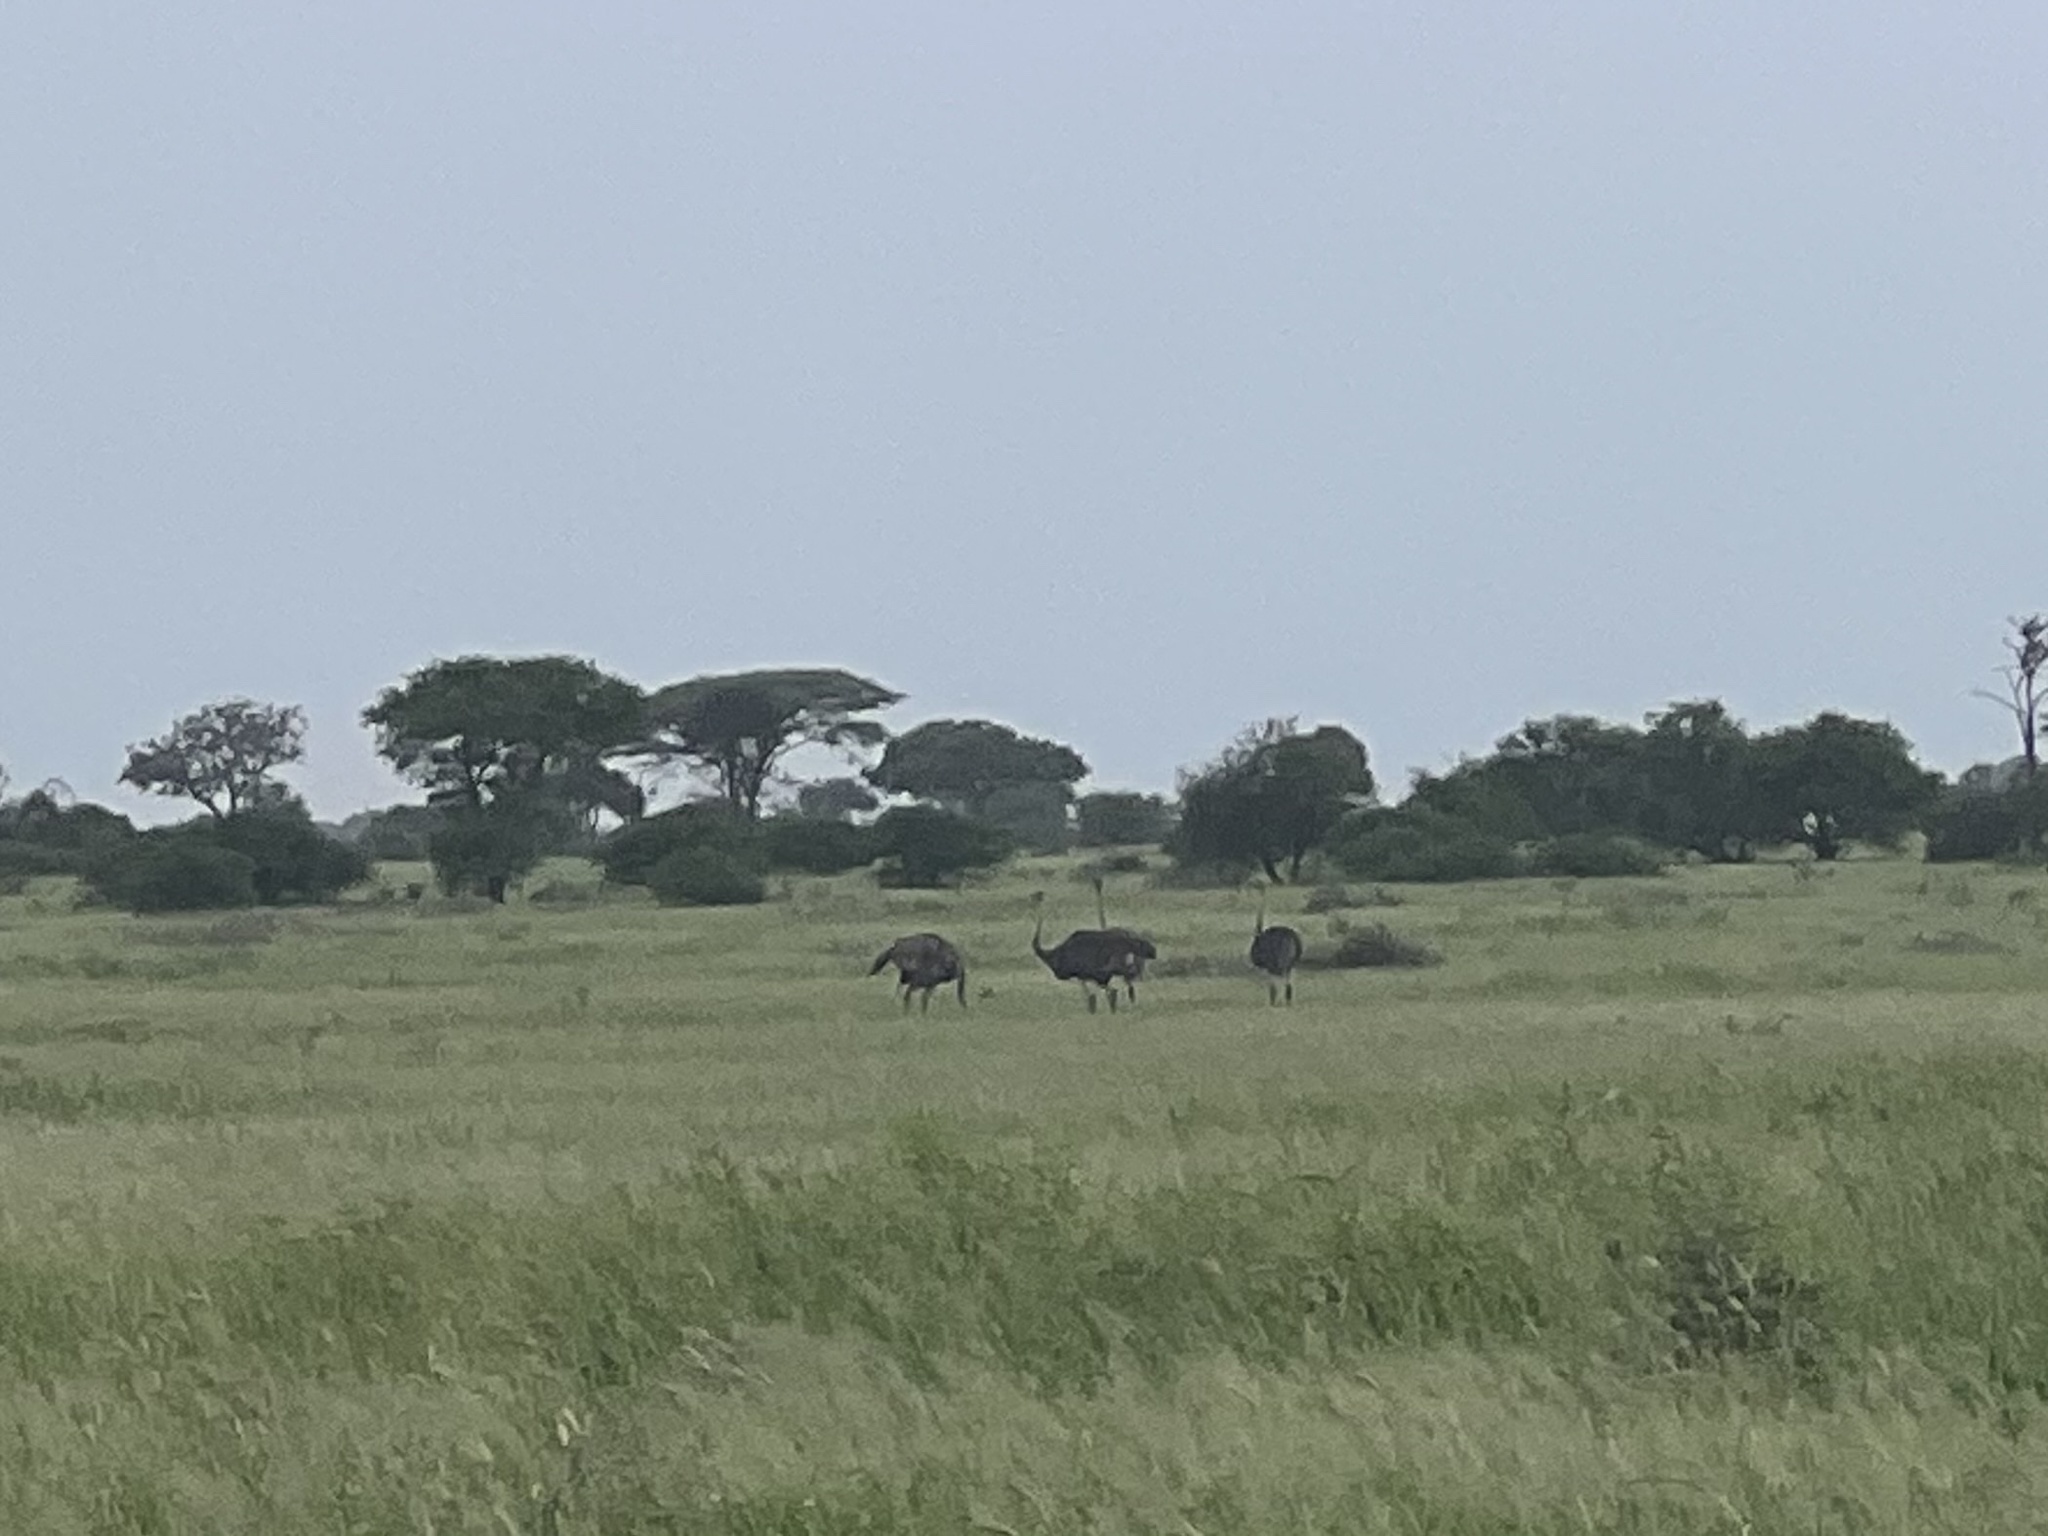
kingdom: Animalia
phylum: Chordata
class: Aves
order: Struthioniformes
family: Struthionidae
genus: Struthio
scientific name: Struthio camelus
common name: Common ostrich
